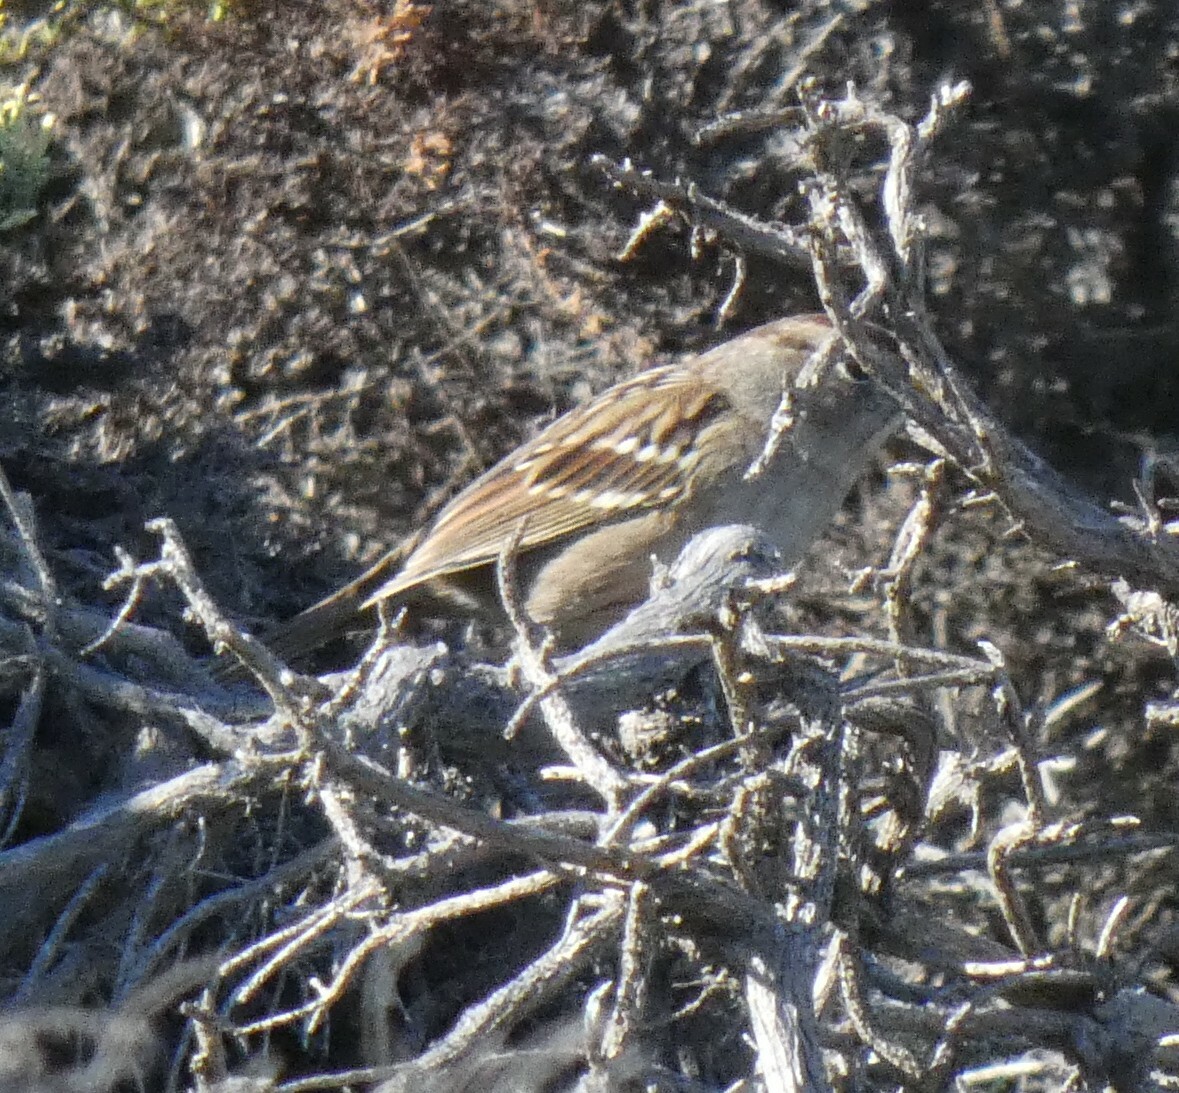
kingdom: Animalia
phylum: Chordata
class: Aves
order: Passeriformes
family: Passerellidae
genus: Zonotrichia
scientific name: Zonotrichia leucophrys
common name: White-crowned sparrow
